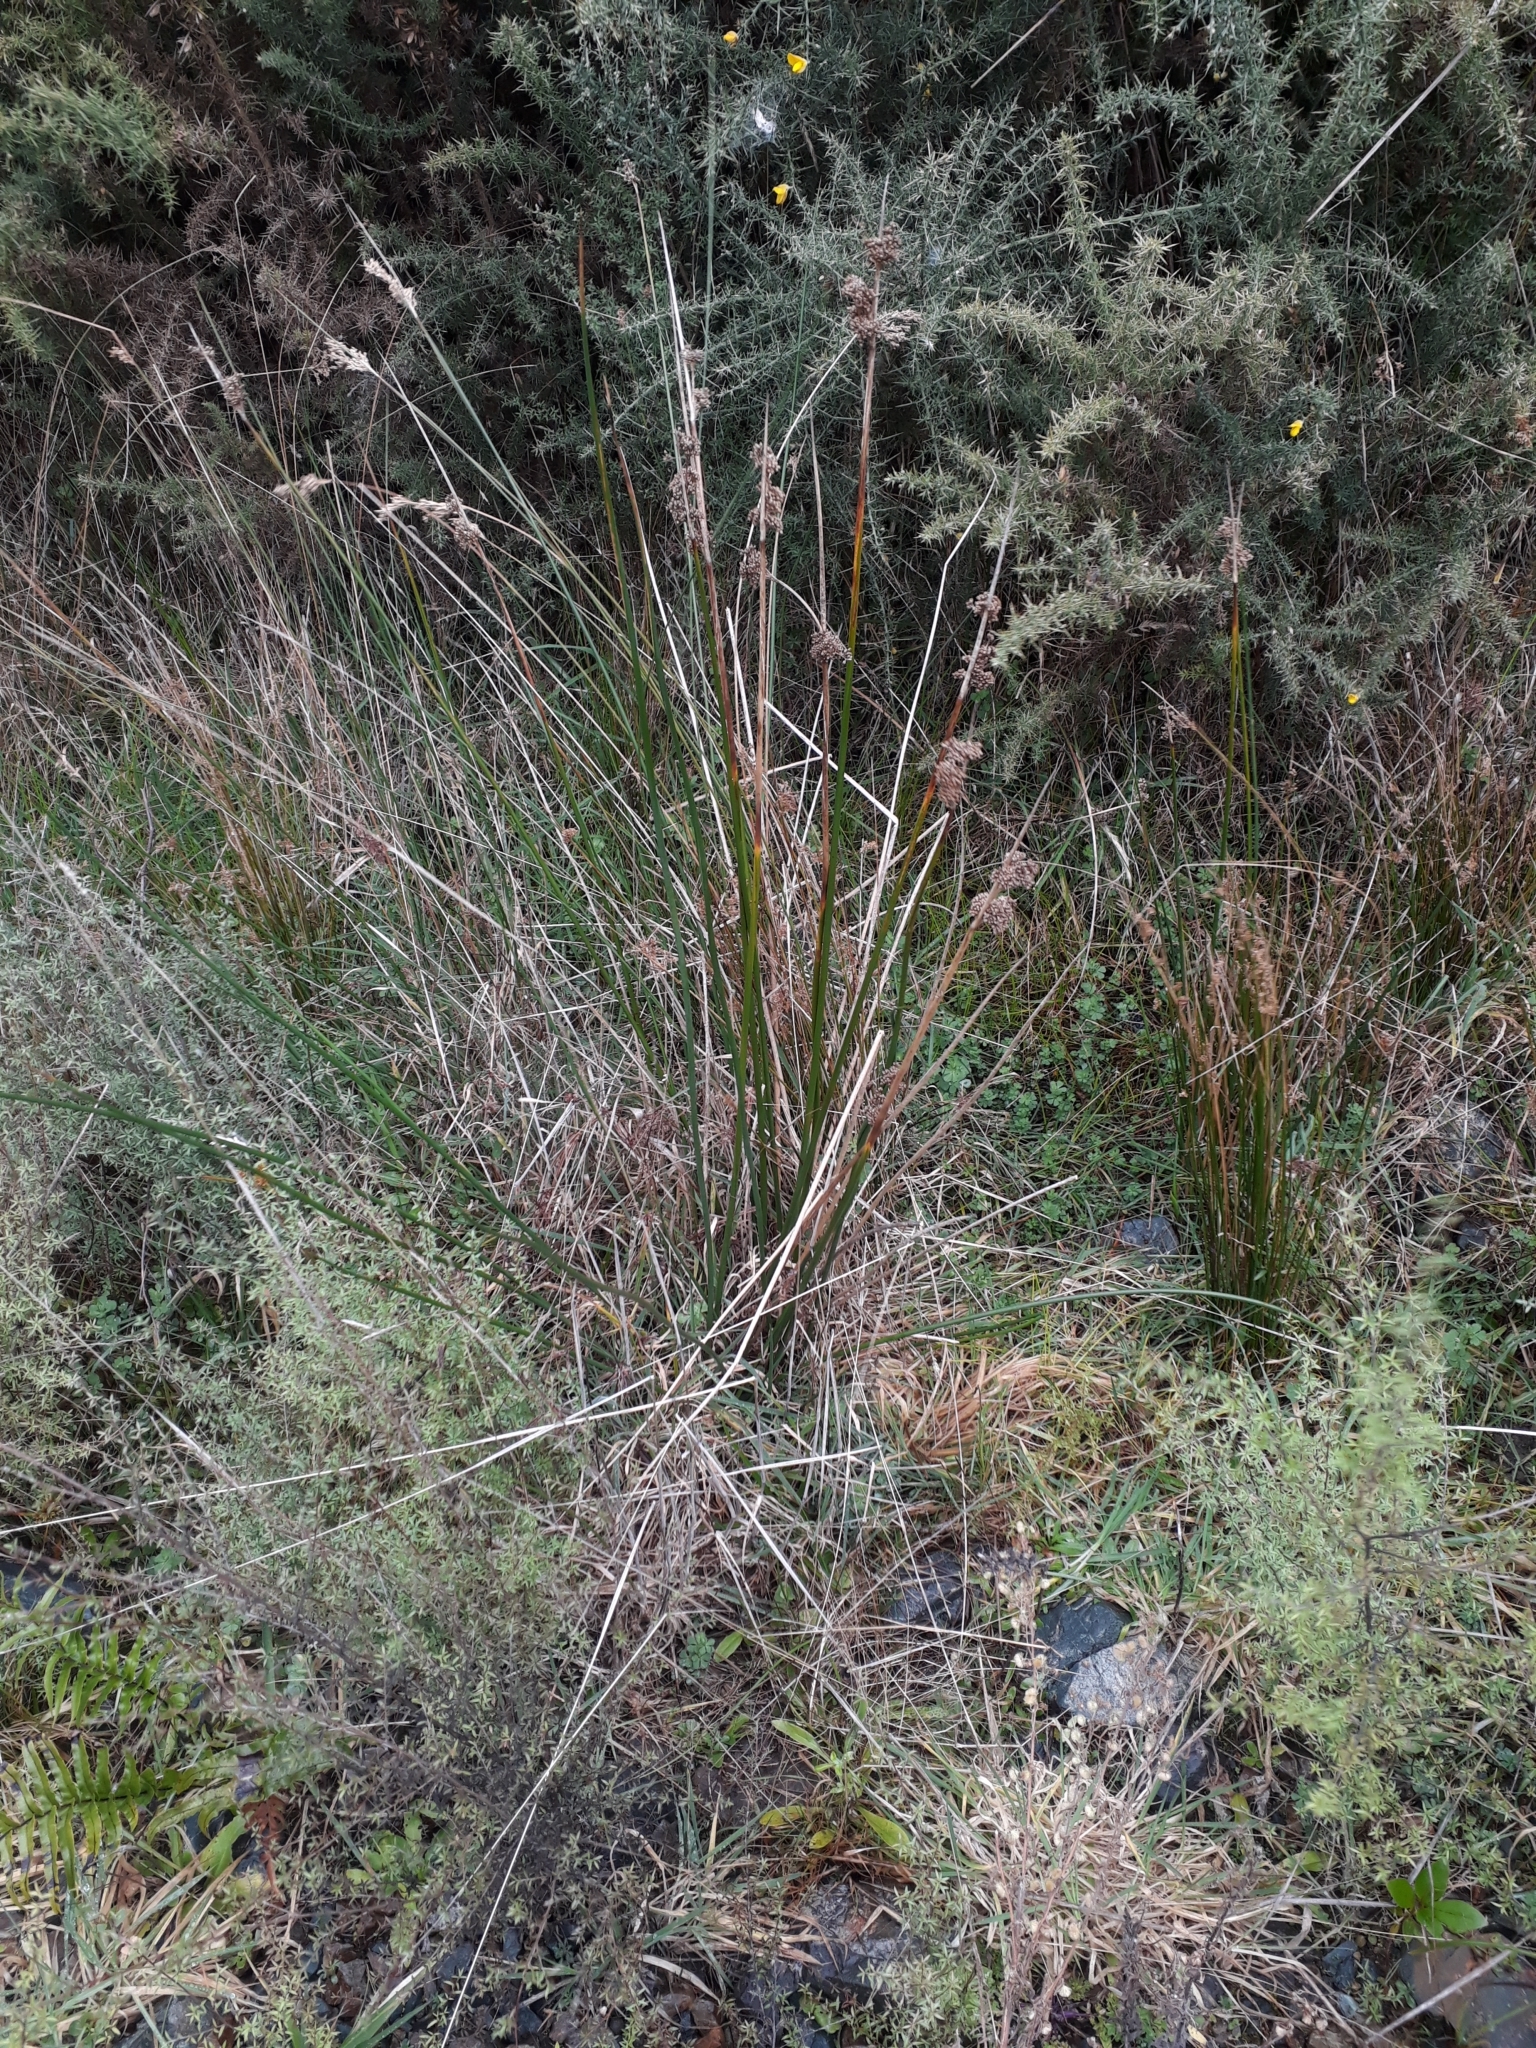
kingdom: Plantae
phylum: Tracheophyta
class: Liliopsida
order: Poales
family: Juncaceae
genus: Juncus
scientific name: Juncus pallidus
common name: Great soft-rush
